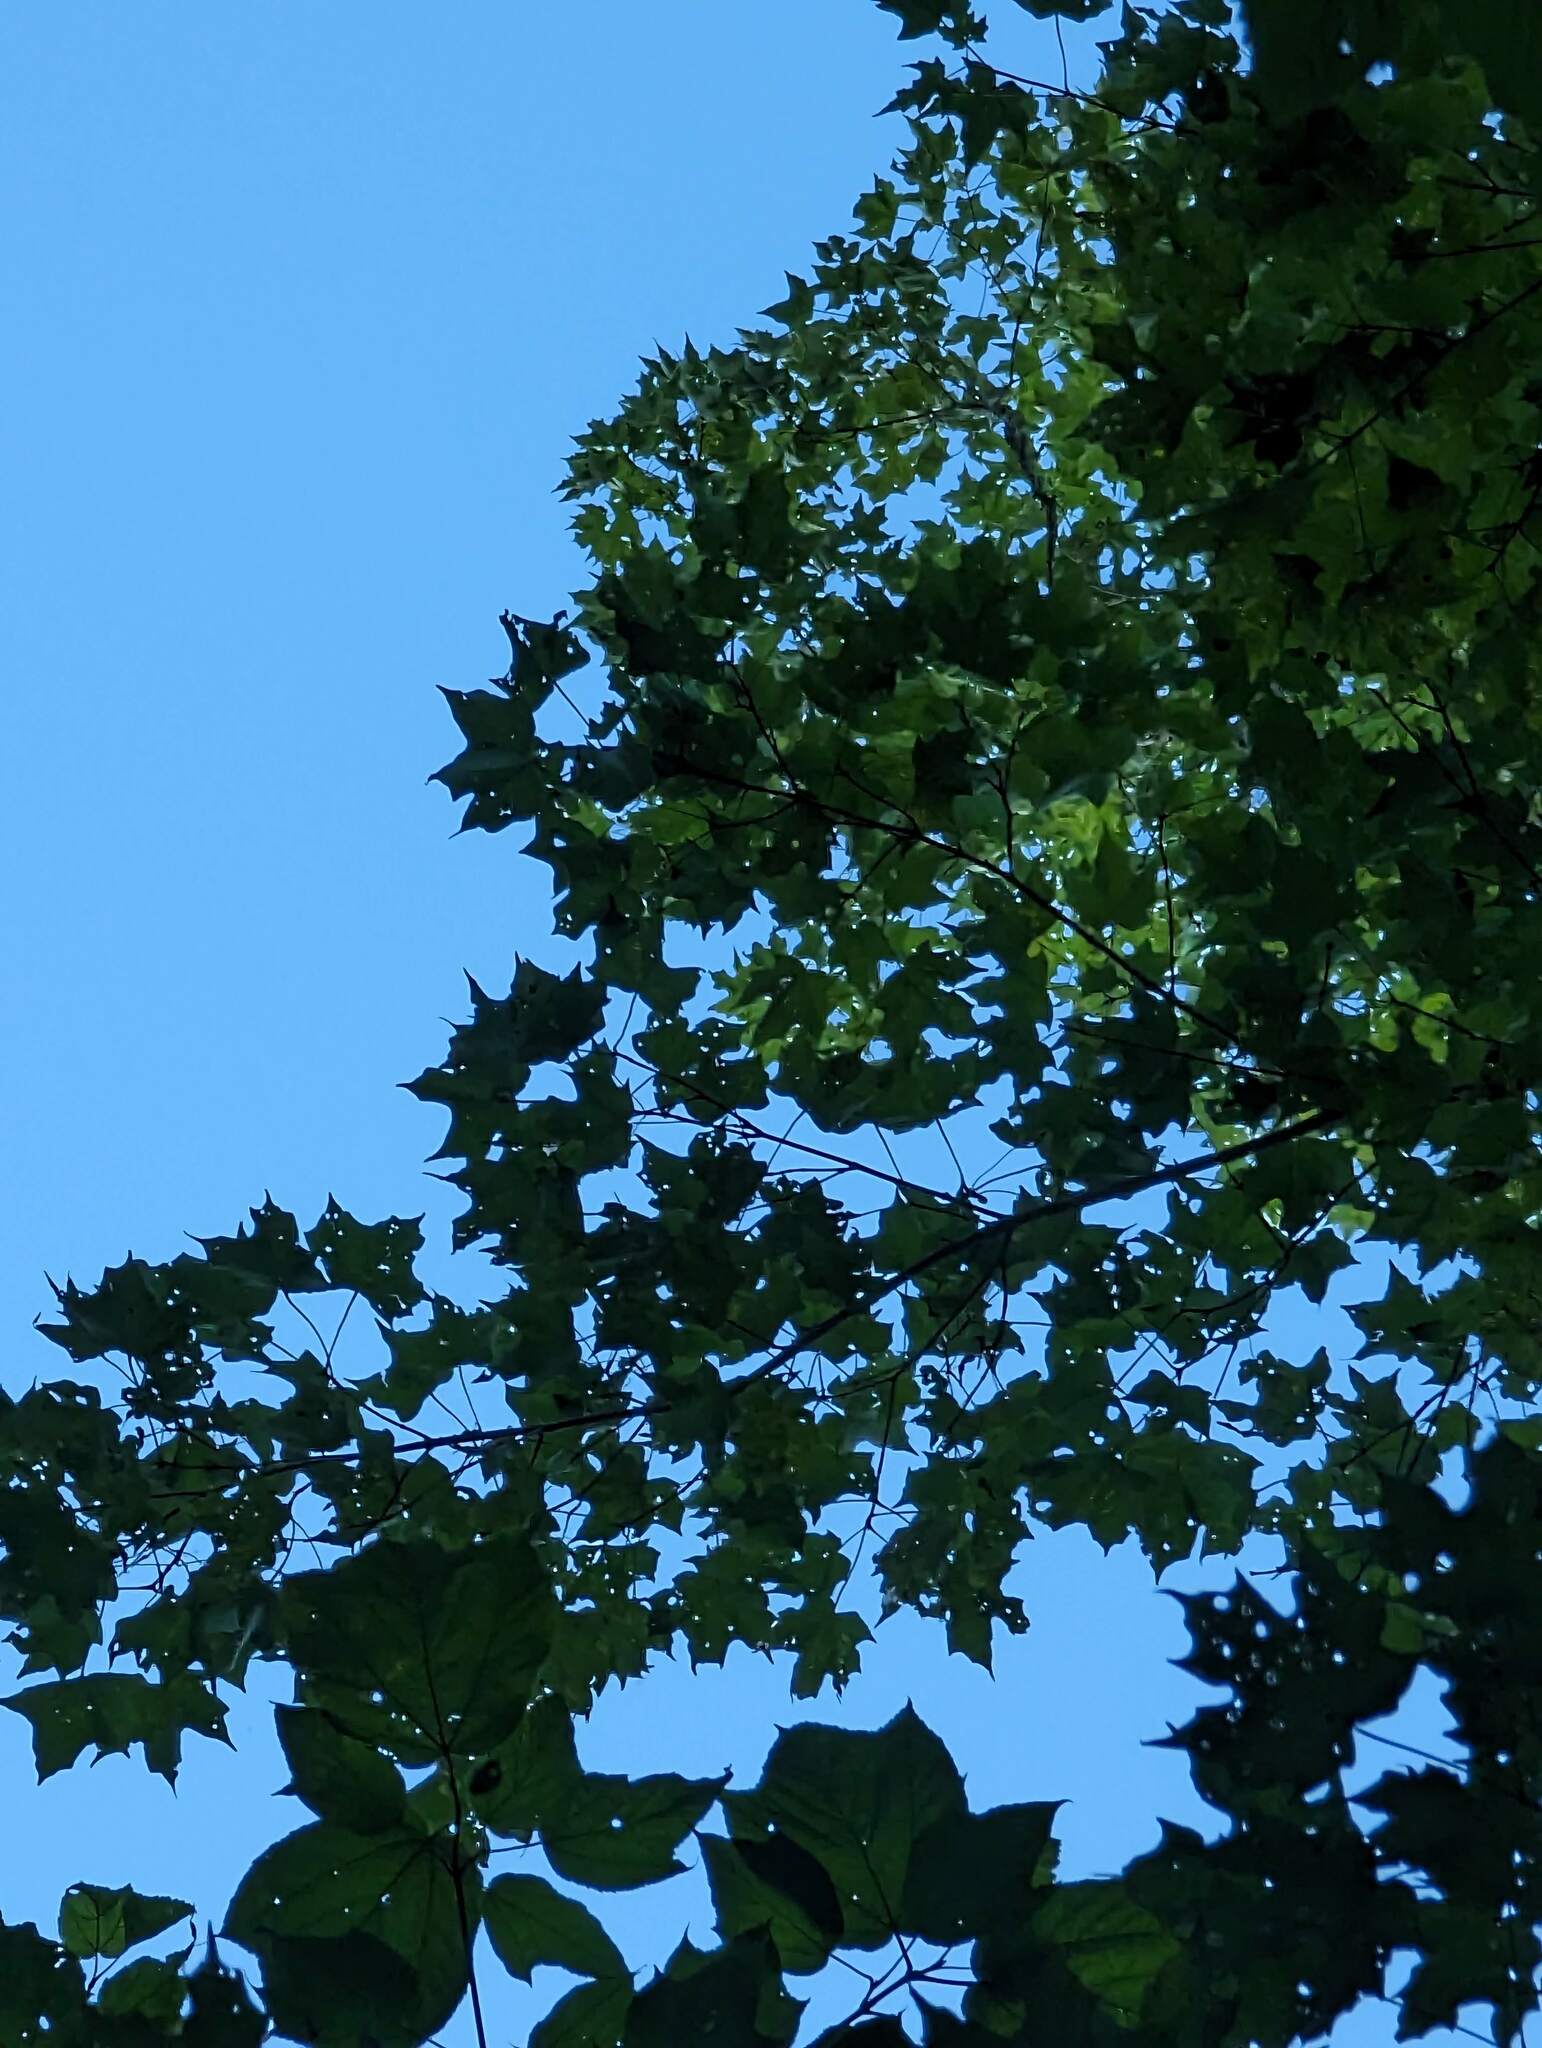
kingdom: Plantae
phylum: Tracheophyta
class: Magnoliopsida
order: Sapindales
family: Sapindaceae
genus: Acer
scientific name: Acer saccharum
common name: Sugar maple
